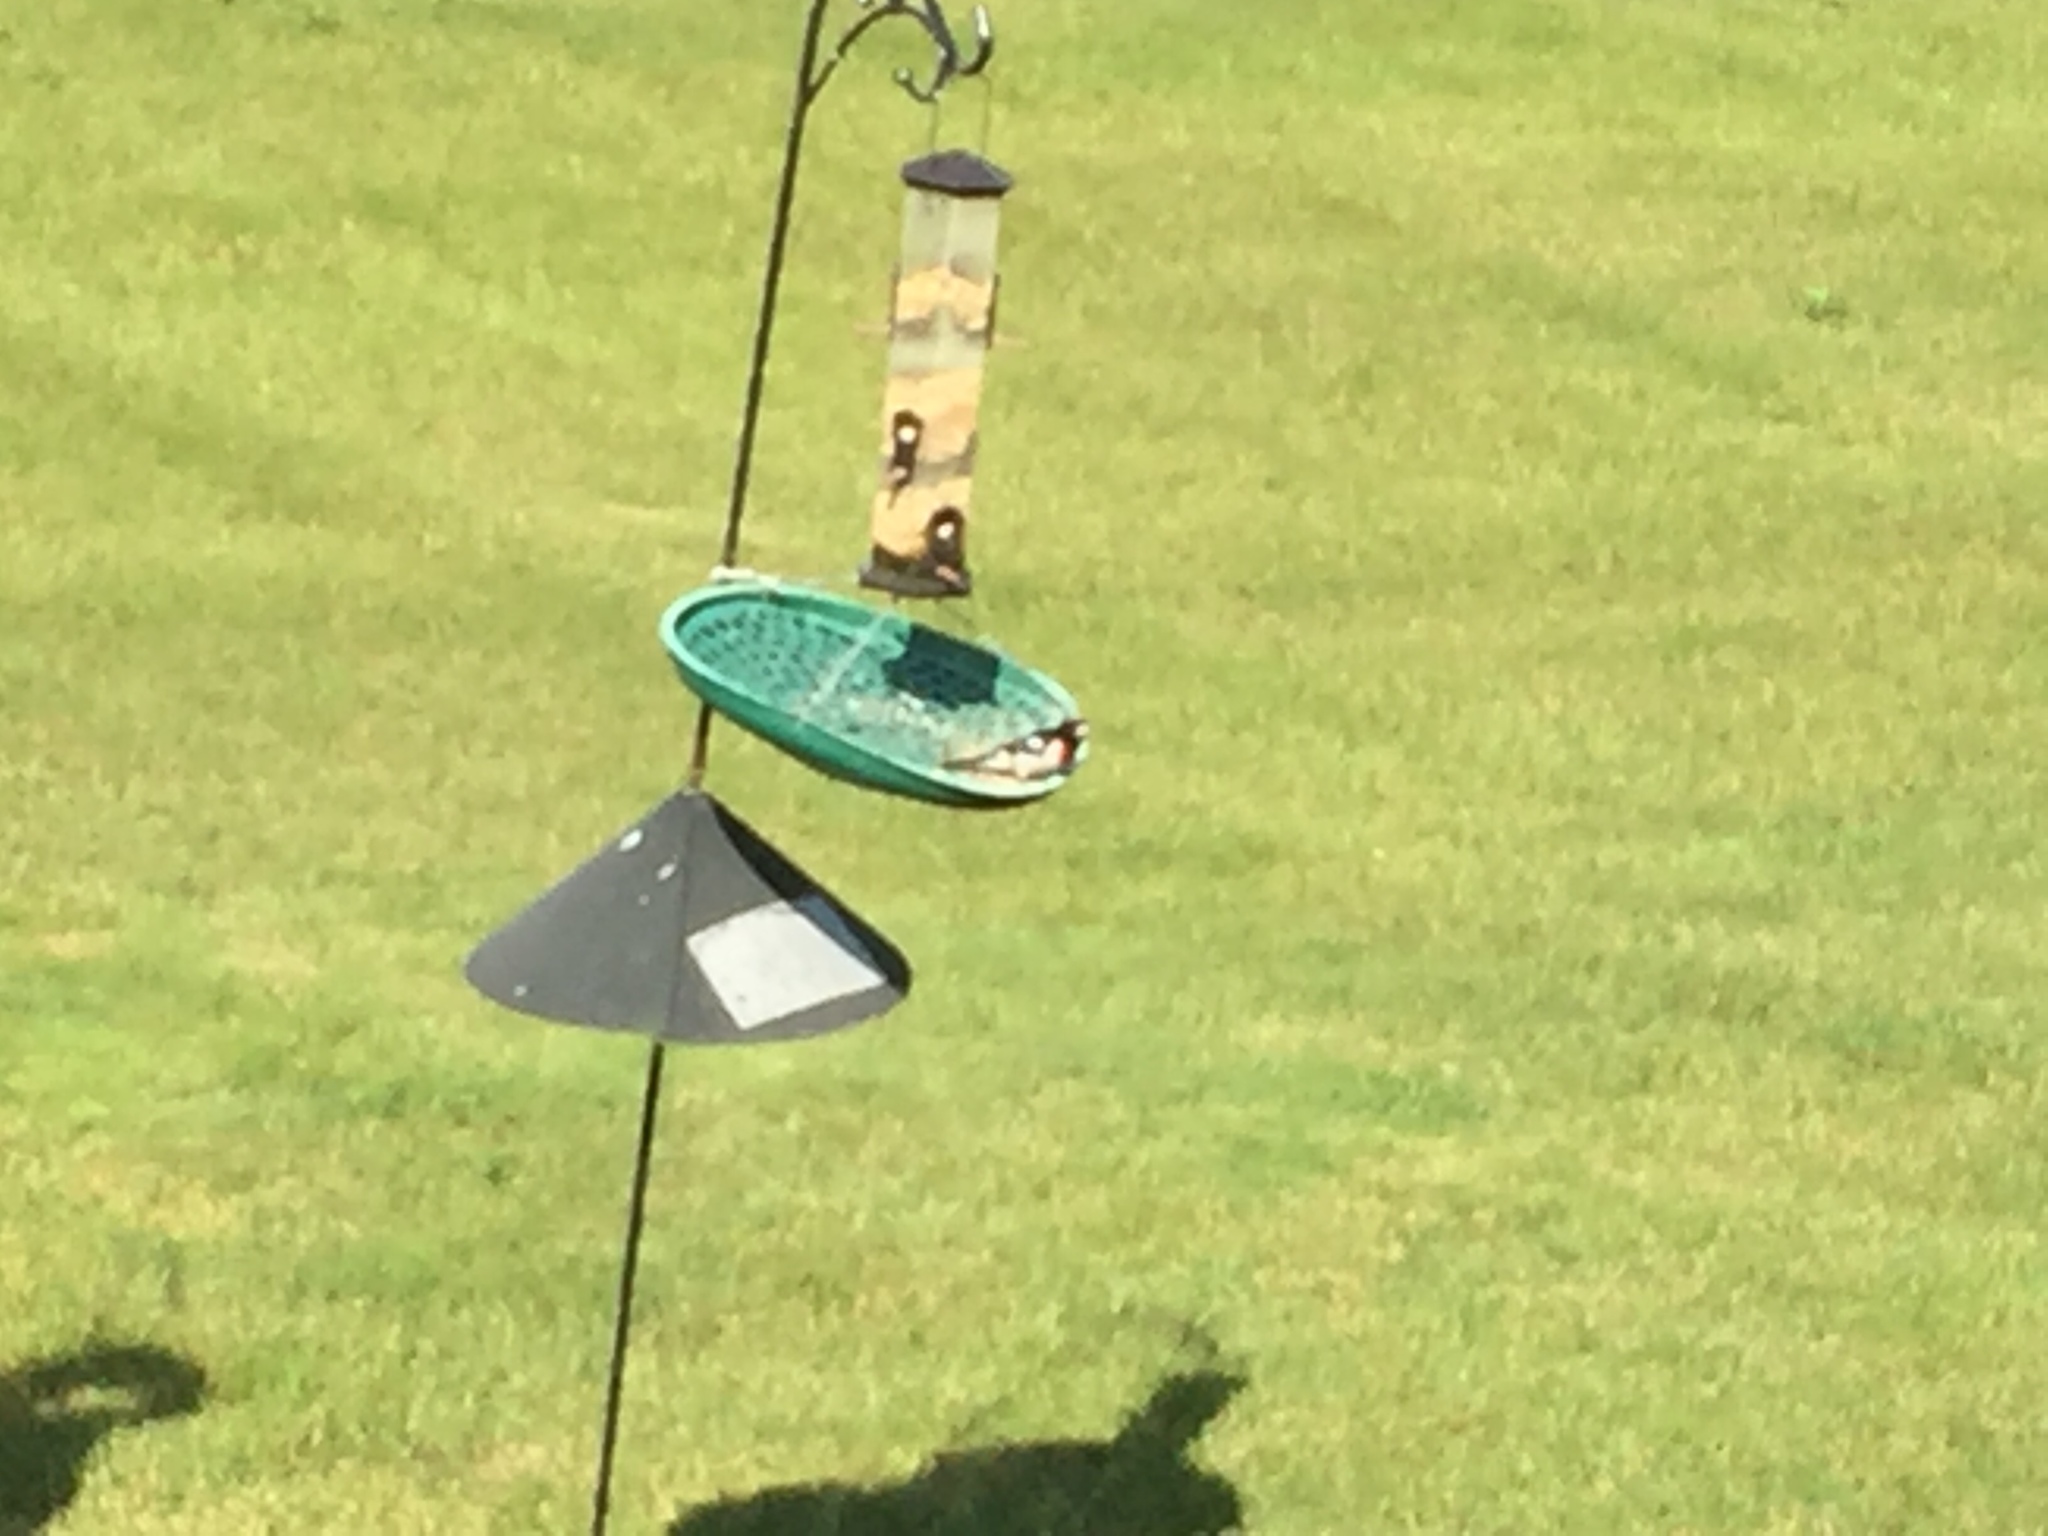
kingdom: Animalia
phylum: Chordata
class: Aves
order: Passeriformes
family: Cardinalidae
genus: Pheucticus
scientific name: Pheucticus ludovicianus
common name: Rose-breasted grosbeak
